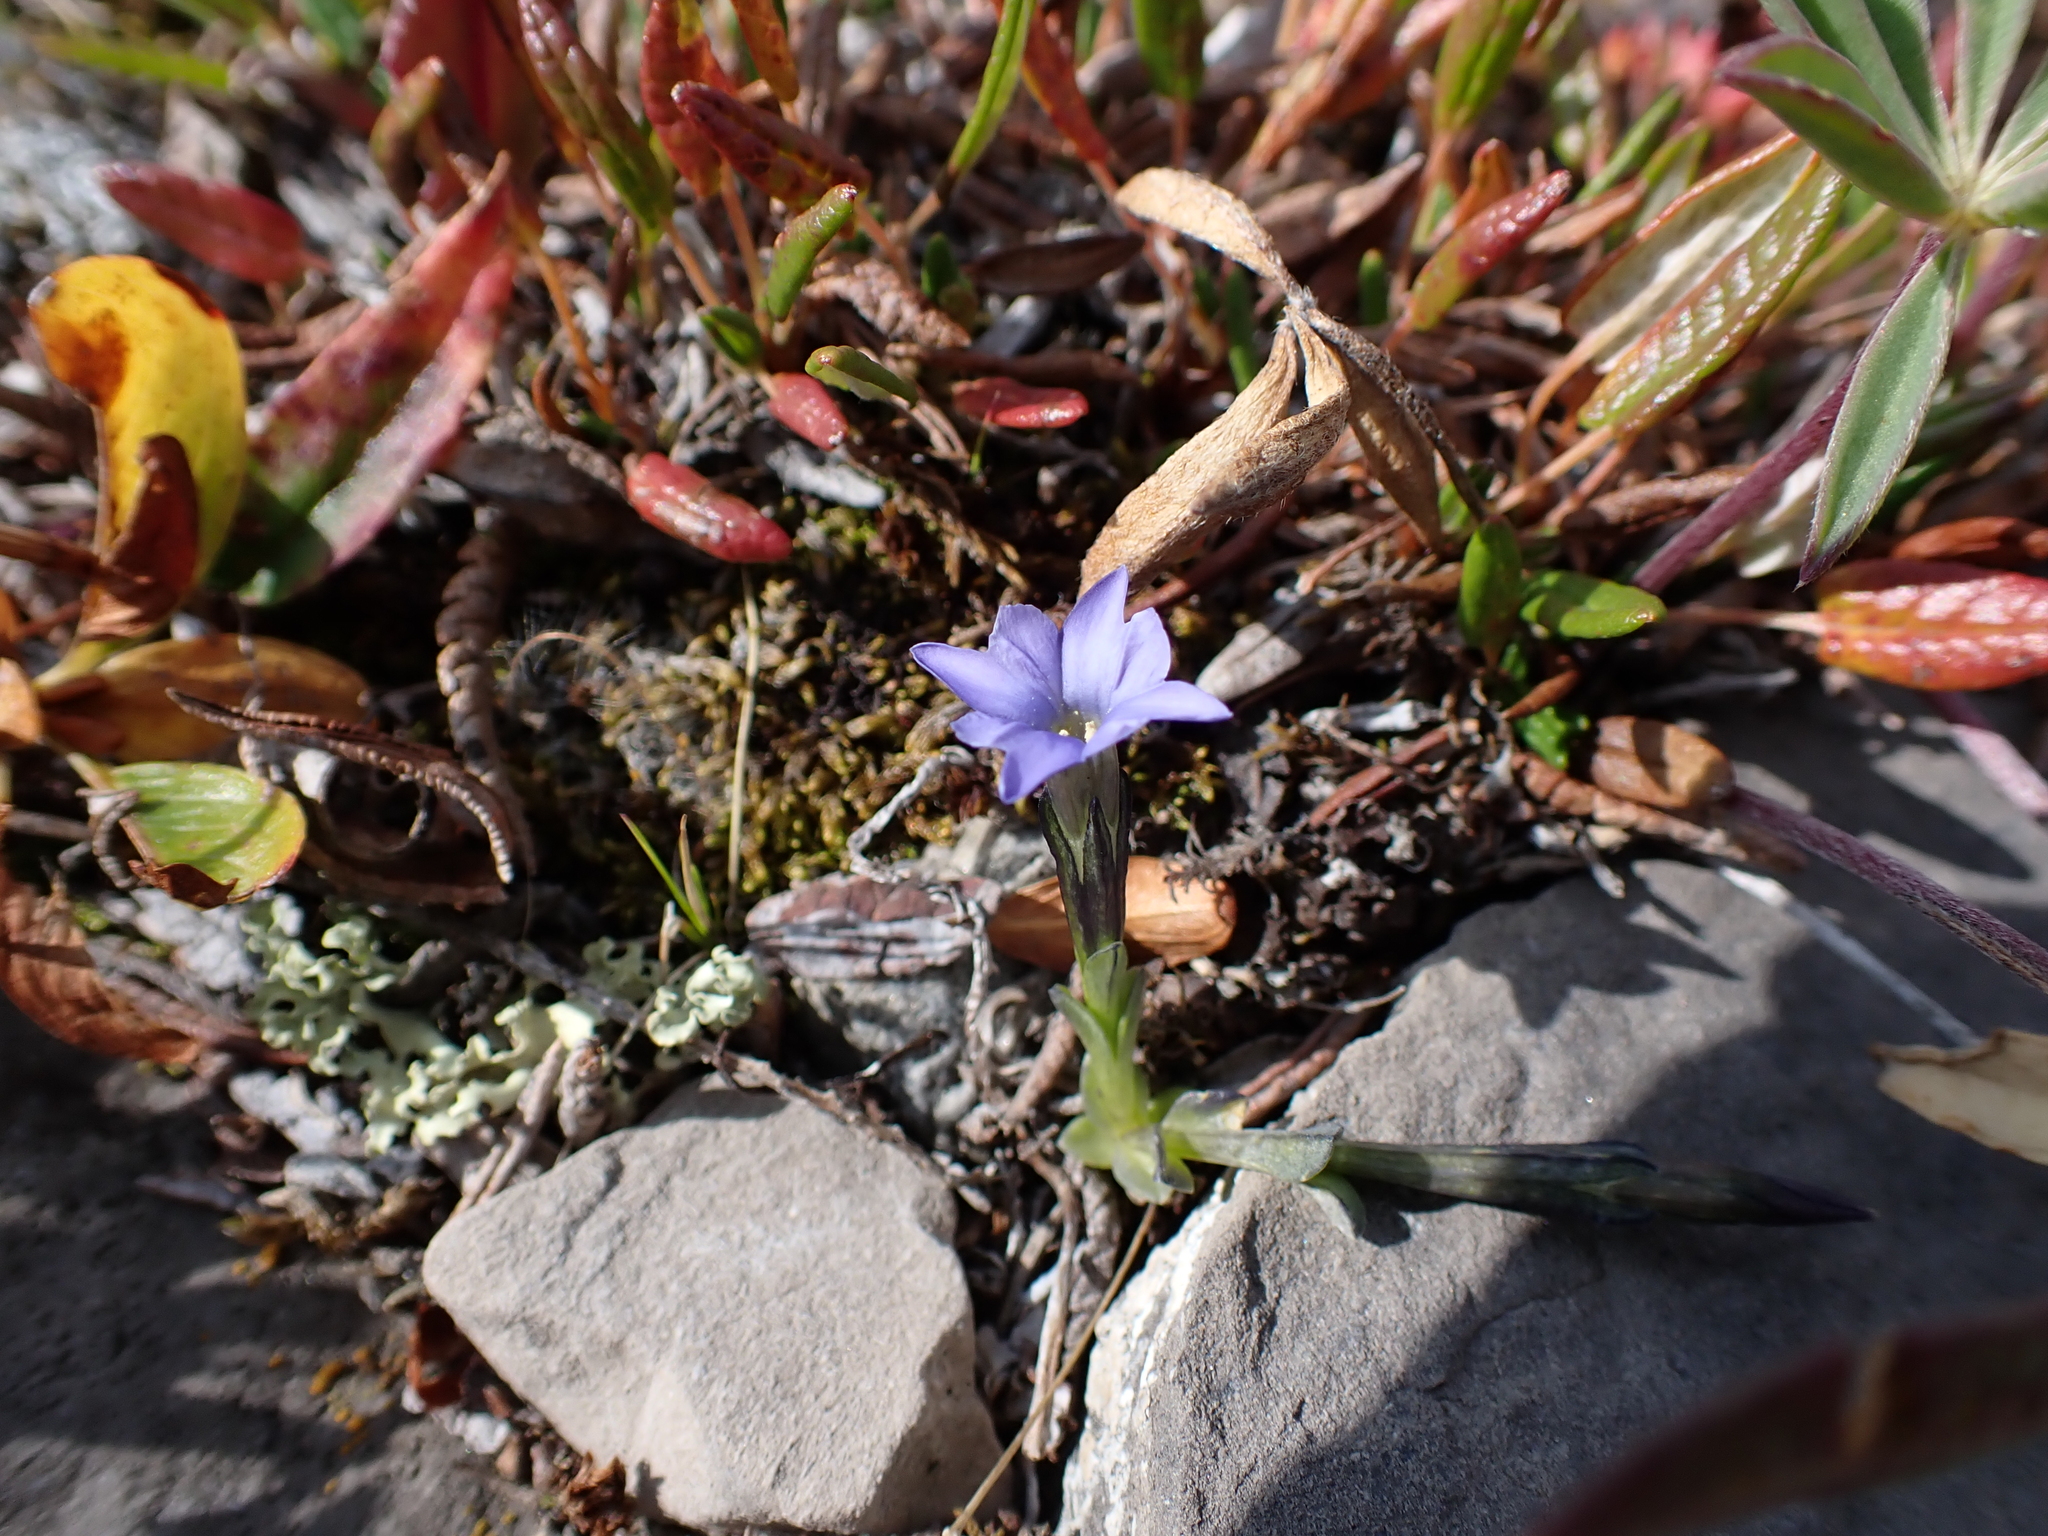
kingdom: Plantae
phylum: Tracheophyta
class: Magnoliopsida
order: Gentianales
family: Gentianaceae
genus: Gentiana
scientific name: Gentiana prostrata
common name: Moss gentian
